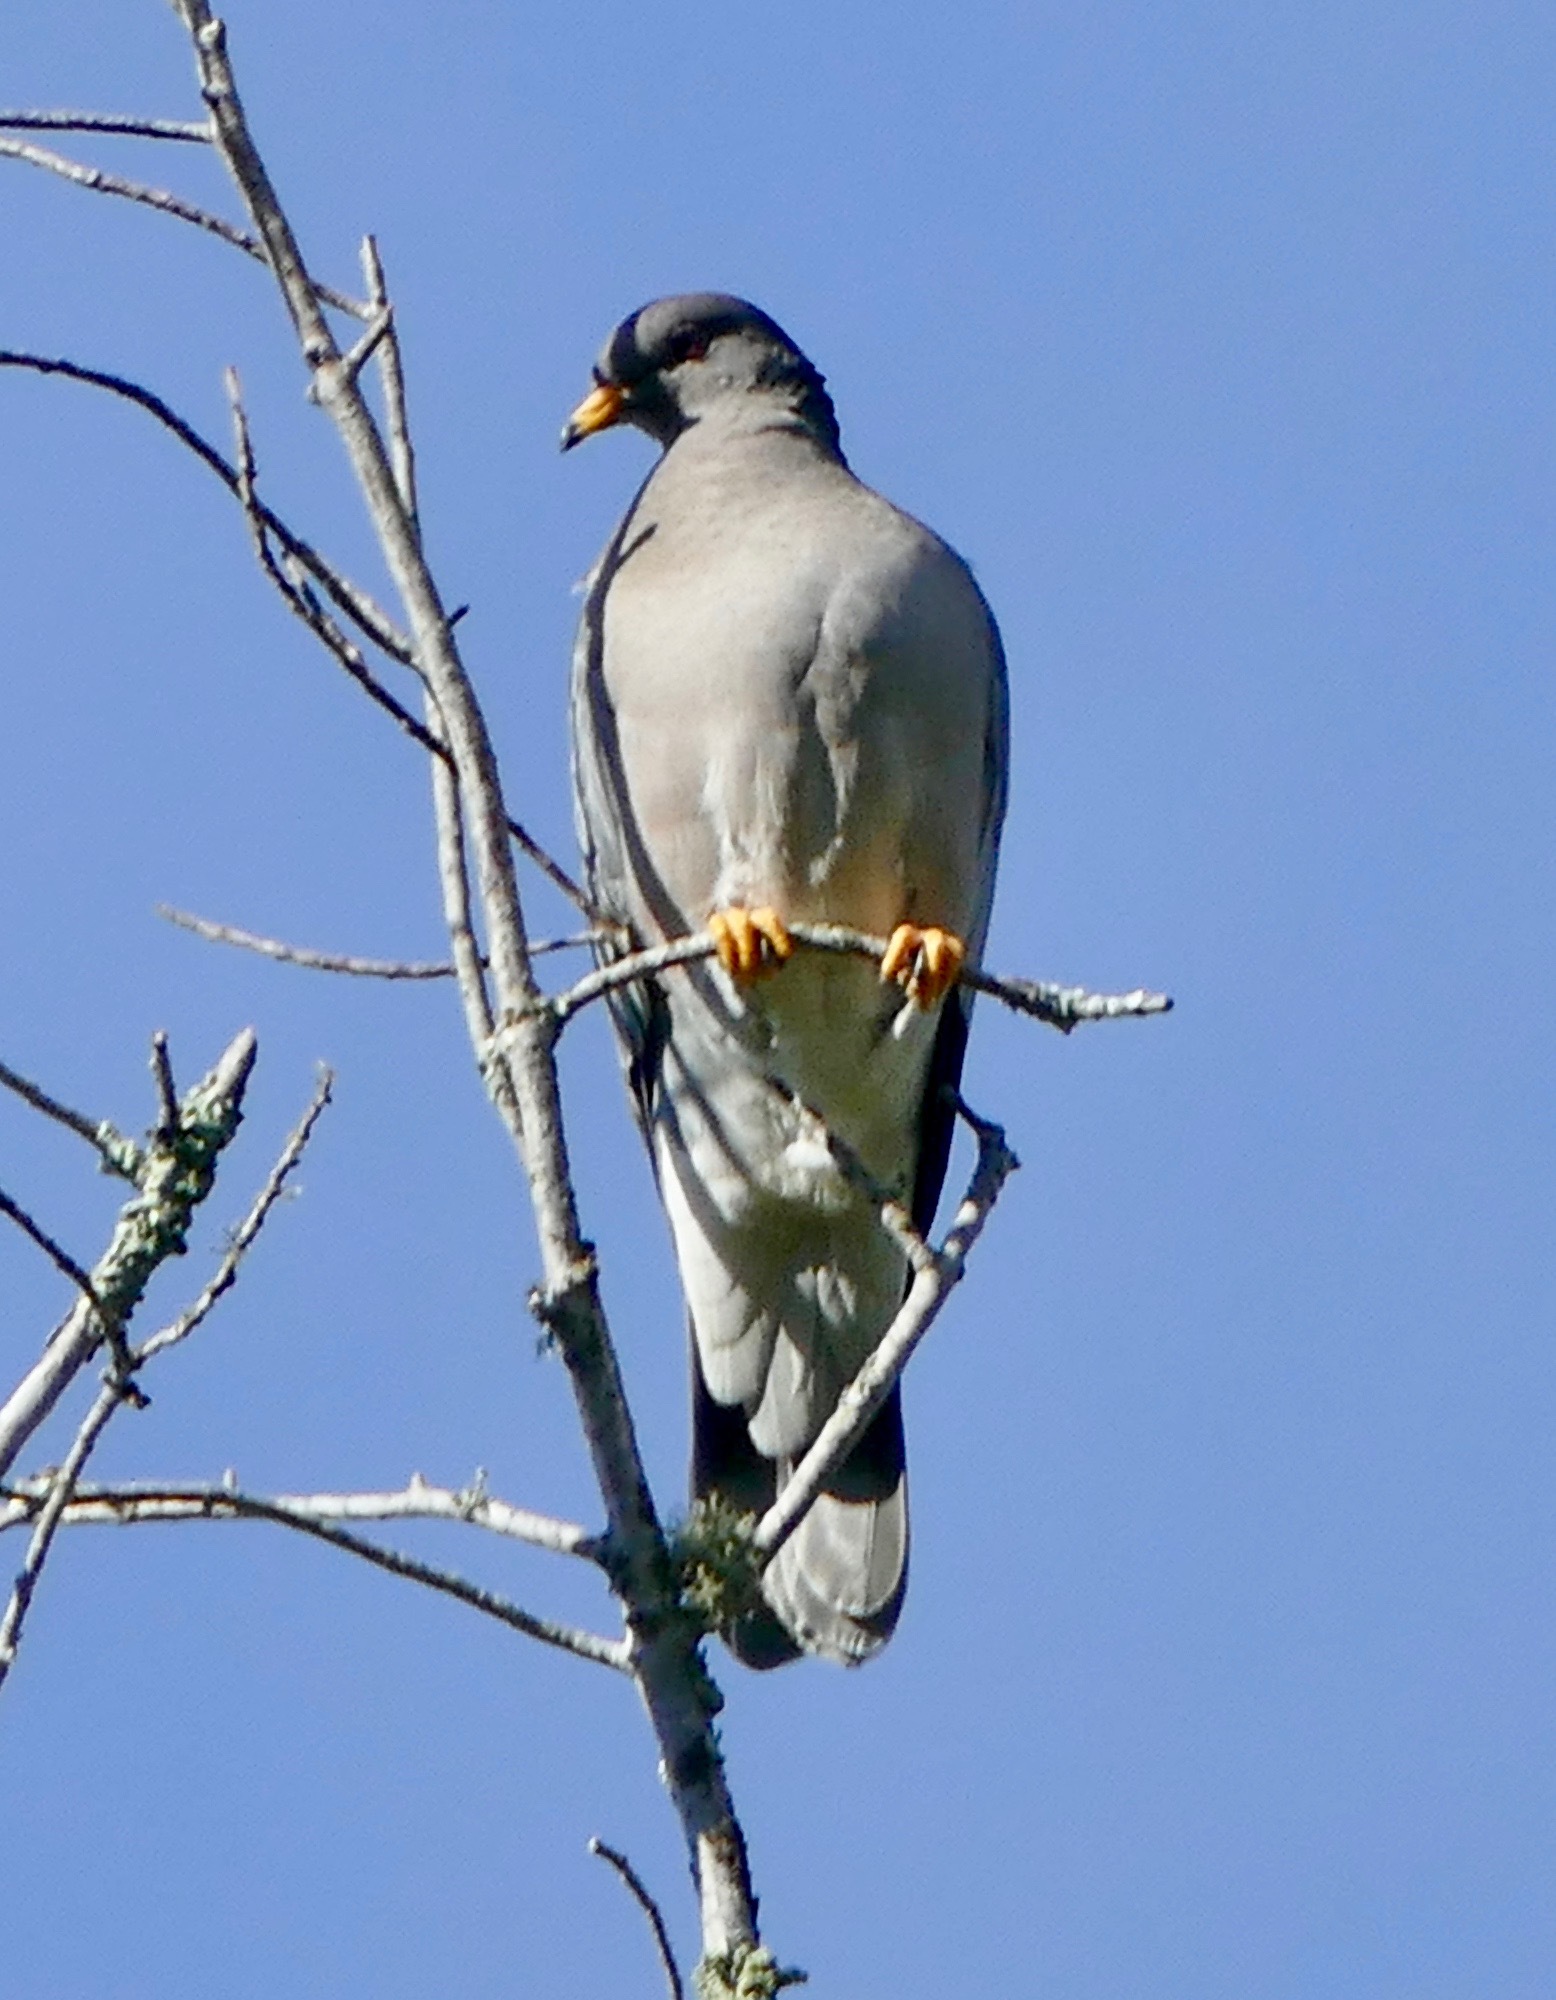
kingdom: Animalia
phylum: Chordata
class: Aves
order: Columbiformes
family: Columbidae
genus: Patagioenas
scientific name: Patagioenas fasciata
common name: Band-tailed pigeon
